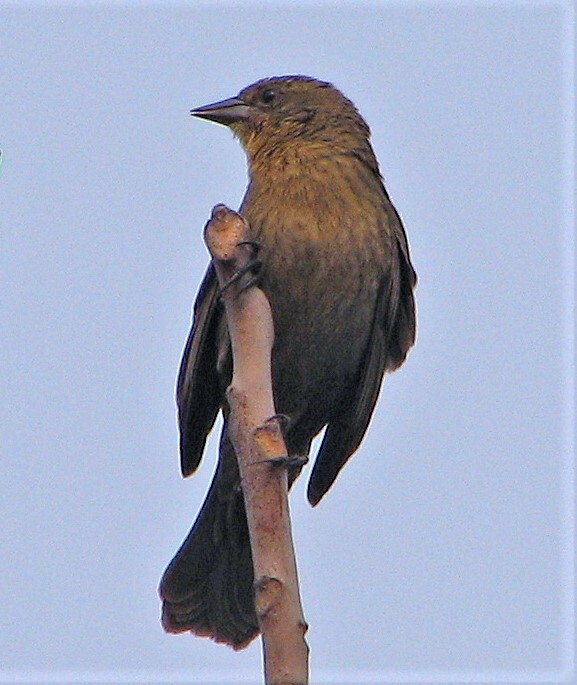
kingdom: Animalia
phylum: Chordata
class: Aves
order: Passeriformes
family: Icteridae
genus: Chrysomus
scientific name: Chrysomus ruficapillus
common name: Chestnut-capped blackbird
